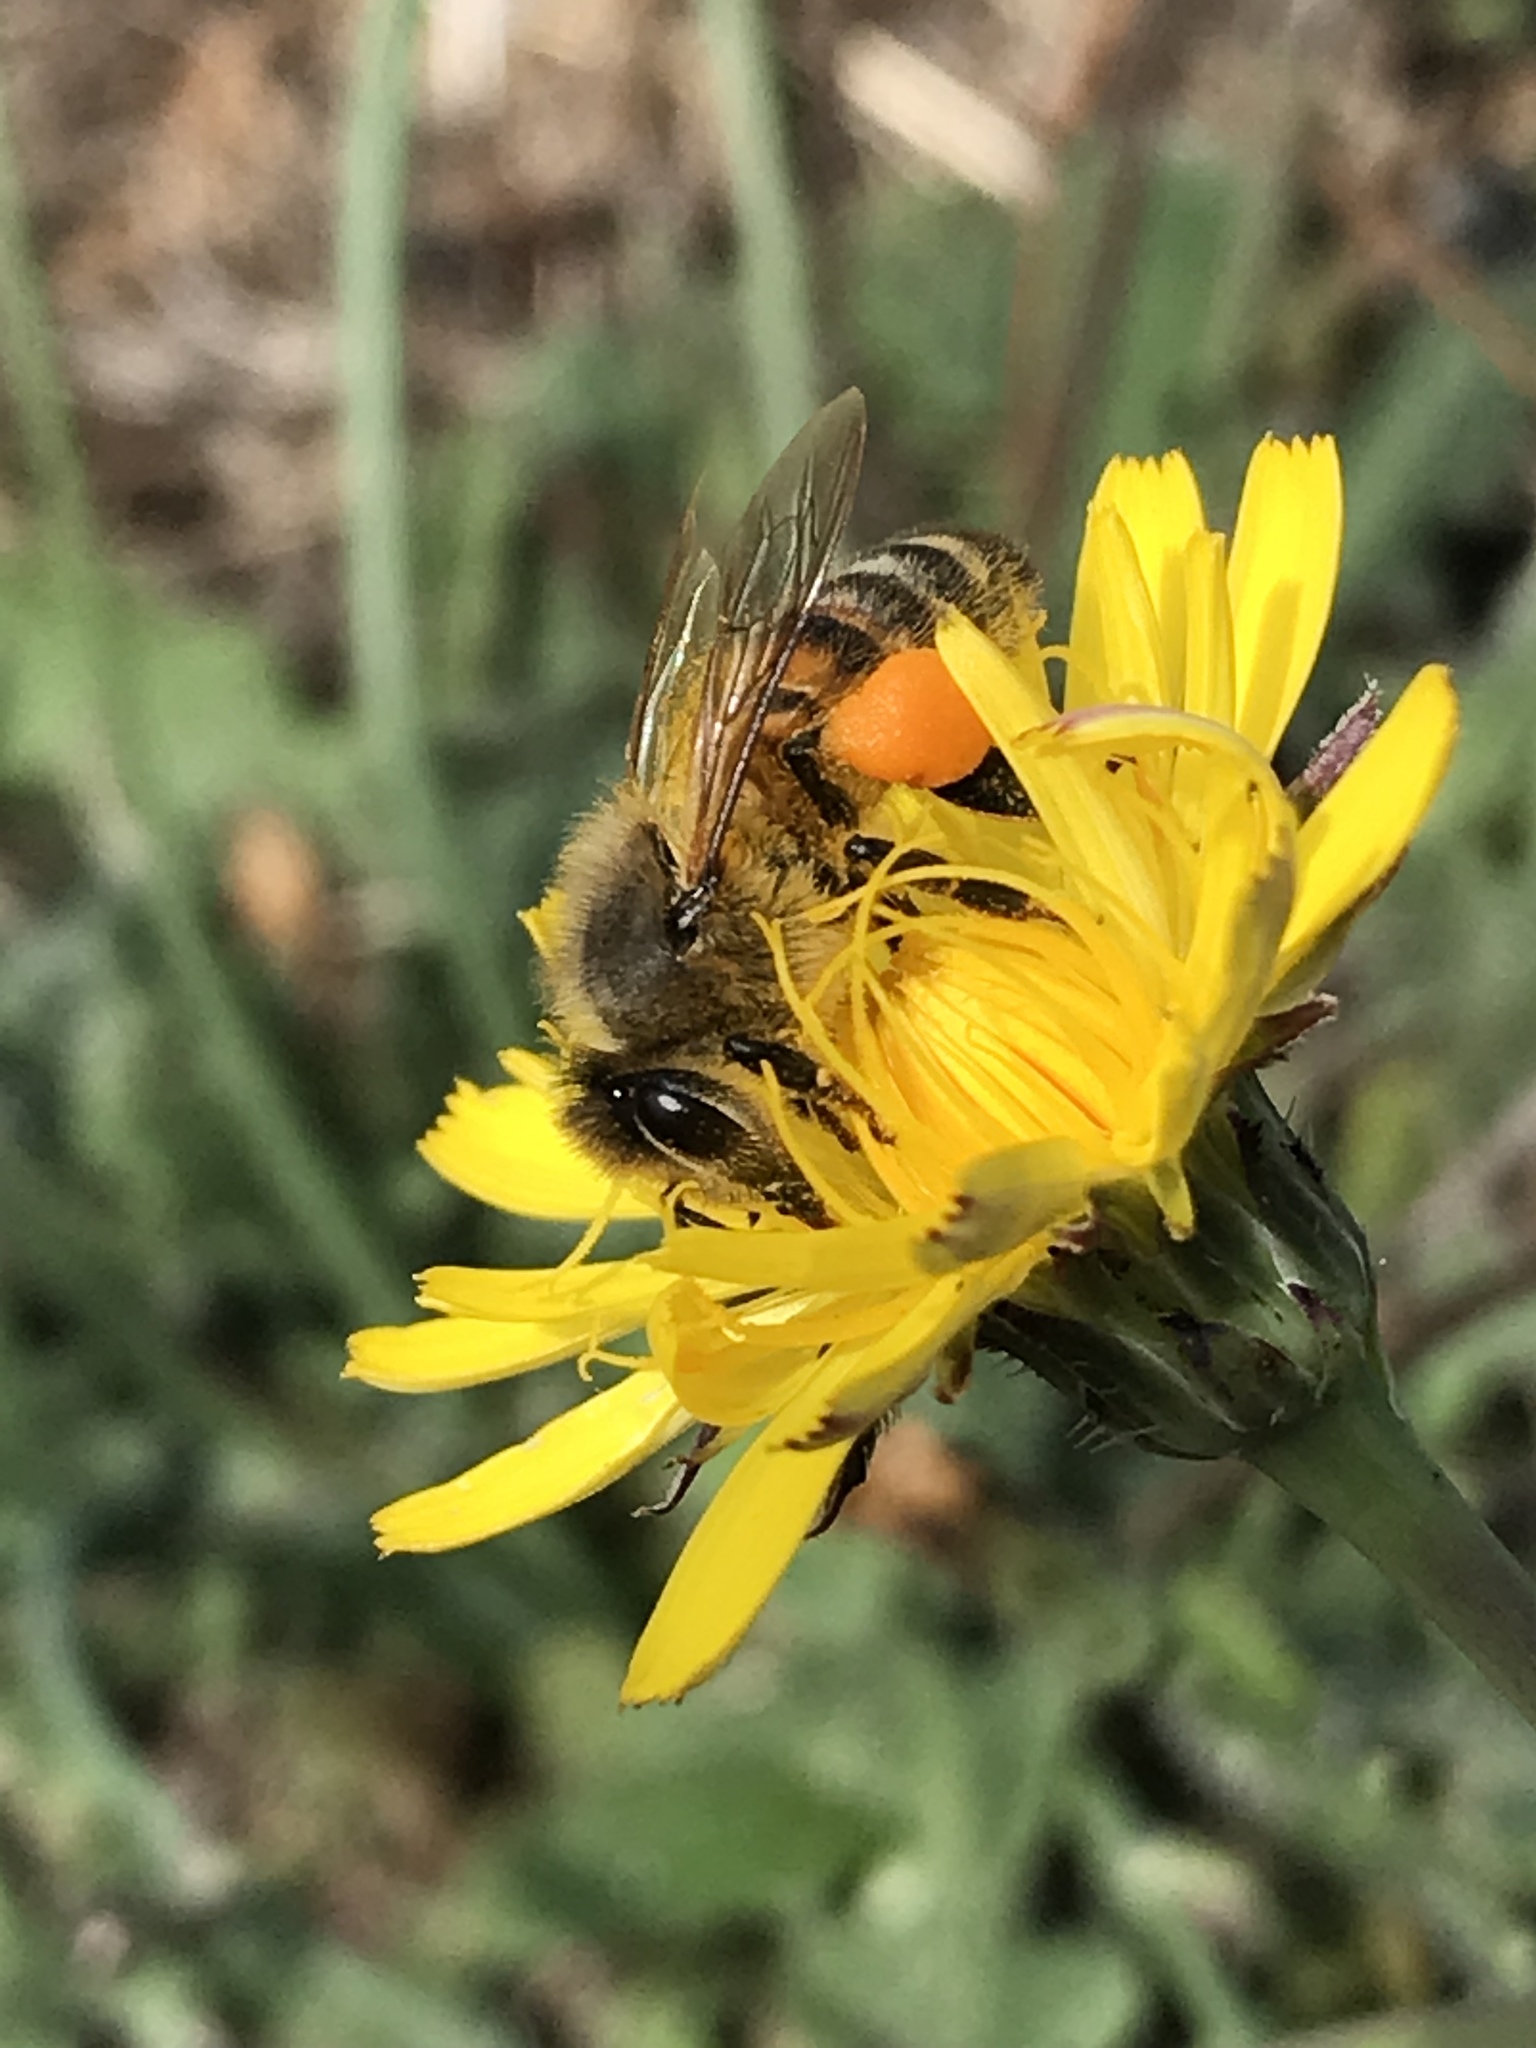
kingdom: Animalia
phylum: Arthropoda
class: Insecta
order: Hymenoptera
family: Apidae
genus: Apis
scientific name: Apis mellifera
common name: Honey bee
